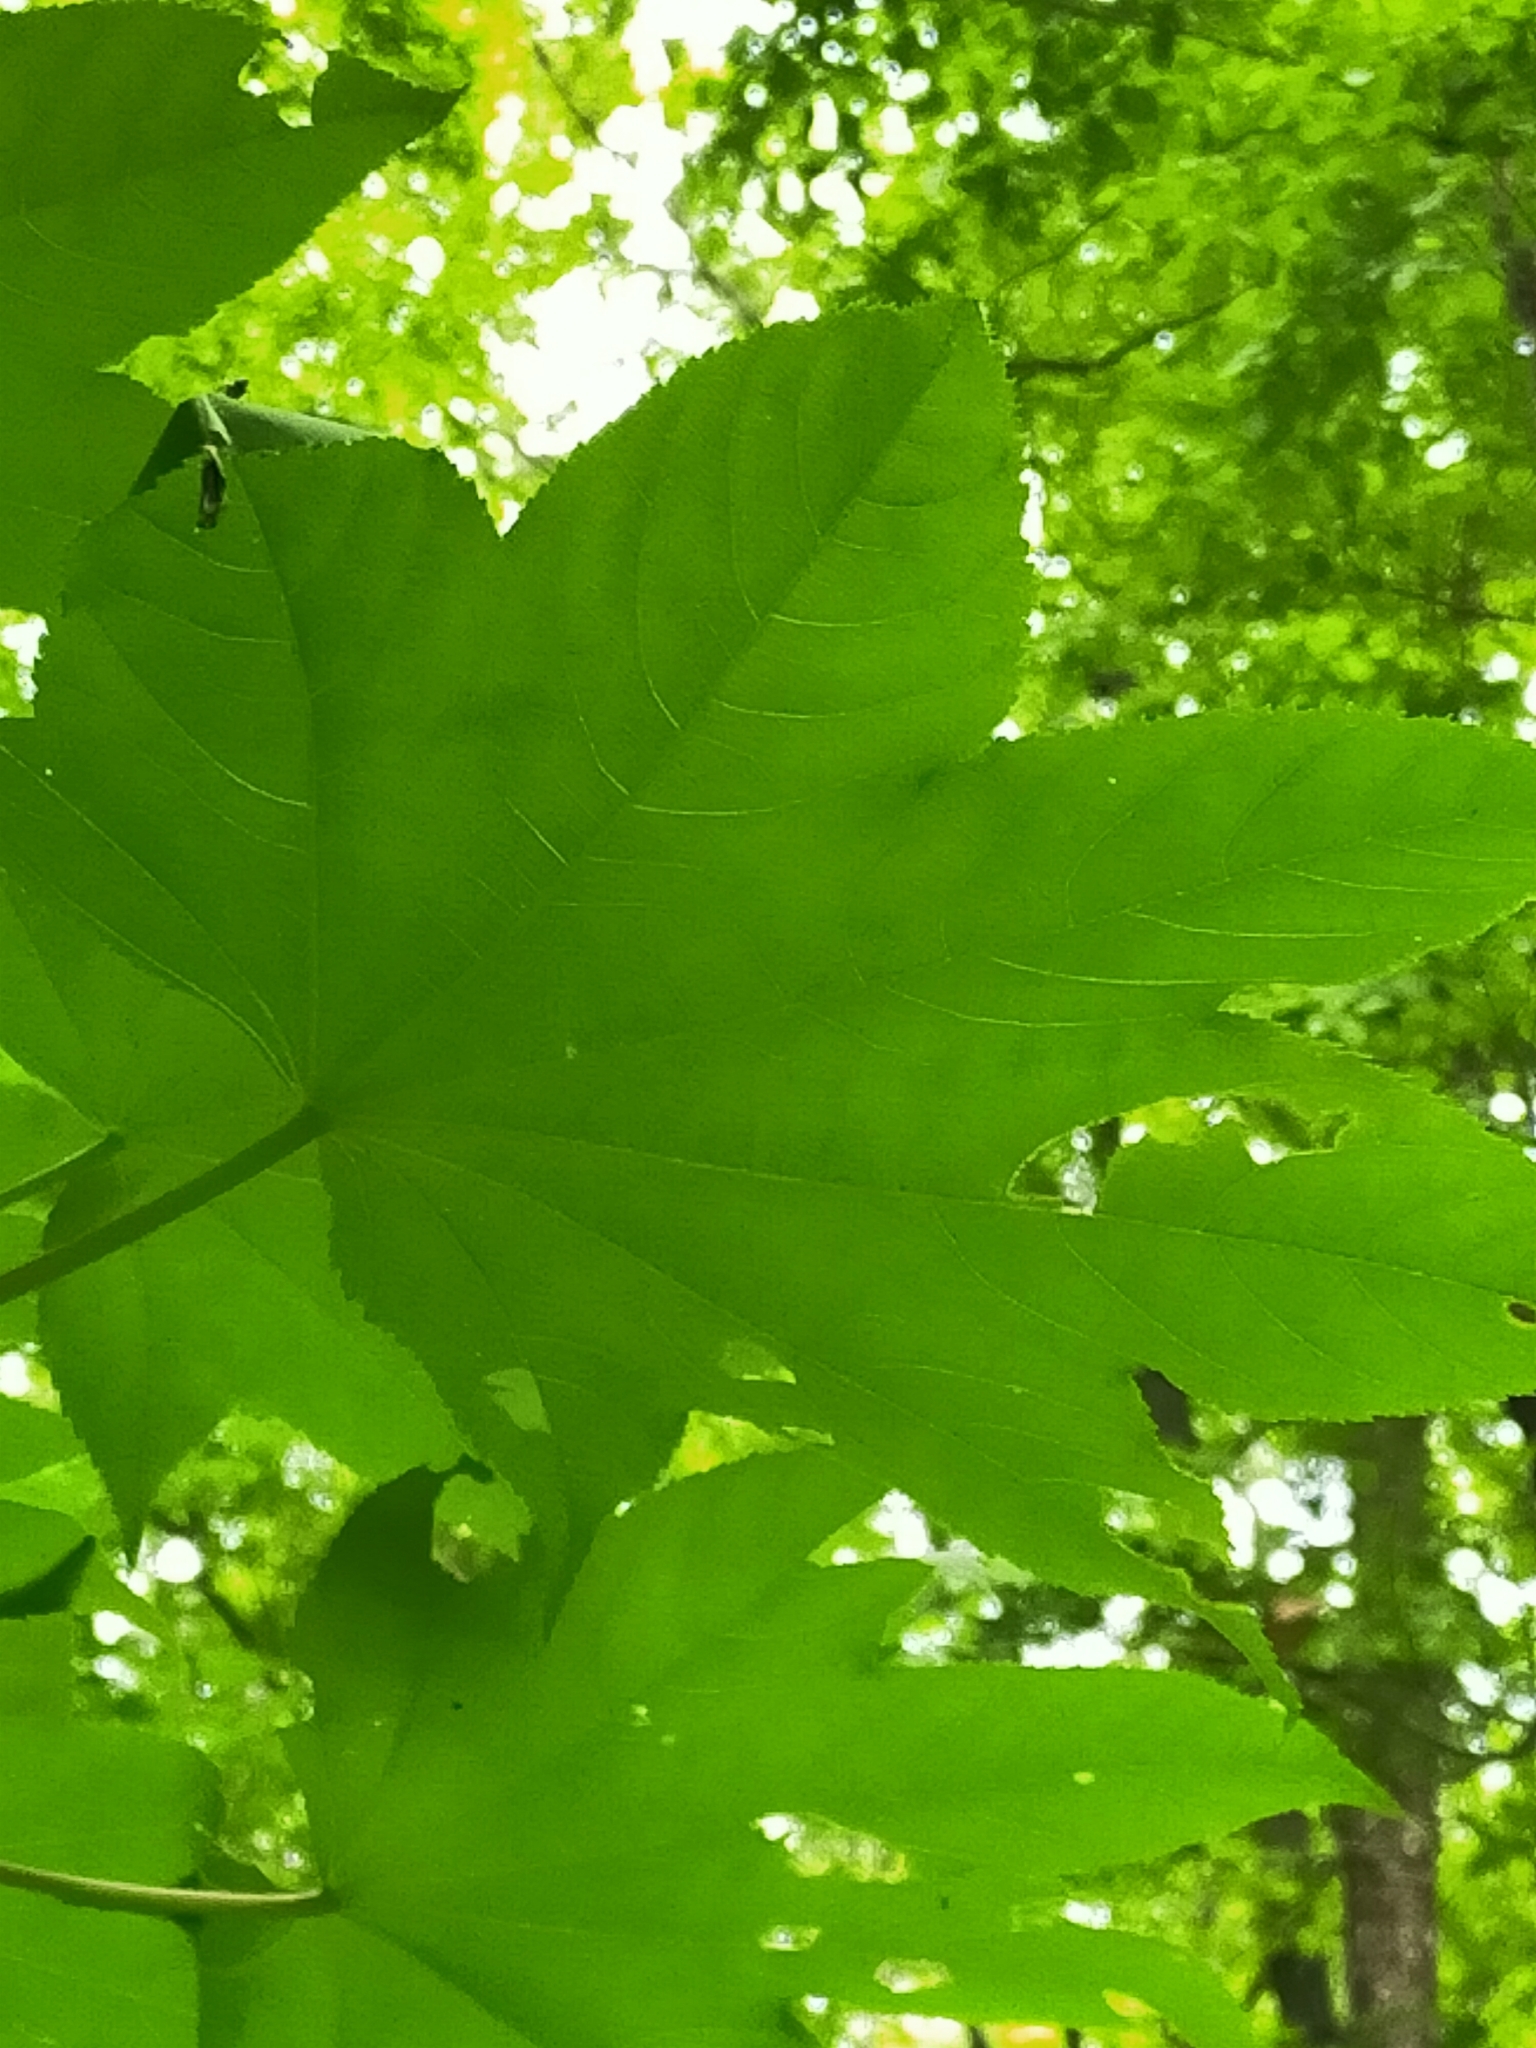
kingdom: Plantae
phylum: Tracheophyta
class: Magnoliopsida
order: Apiales
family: Araliaceae
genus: Kalopanax
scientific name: Kalopanax septemlobus
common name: Castor aralia
